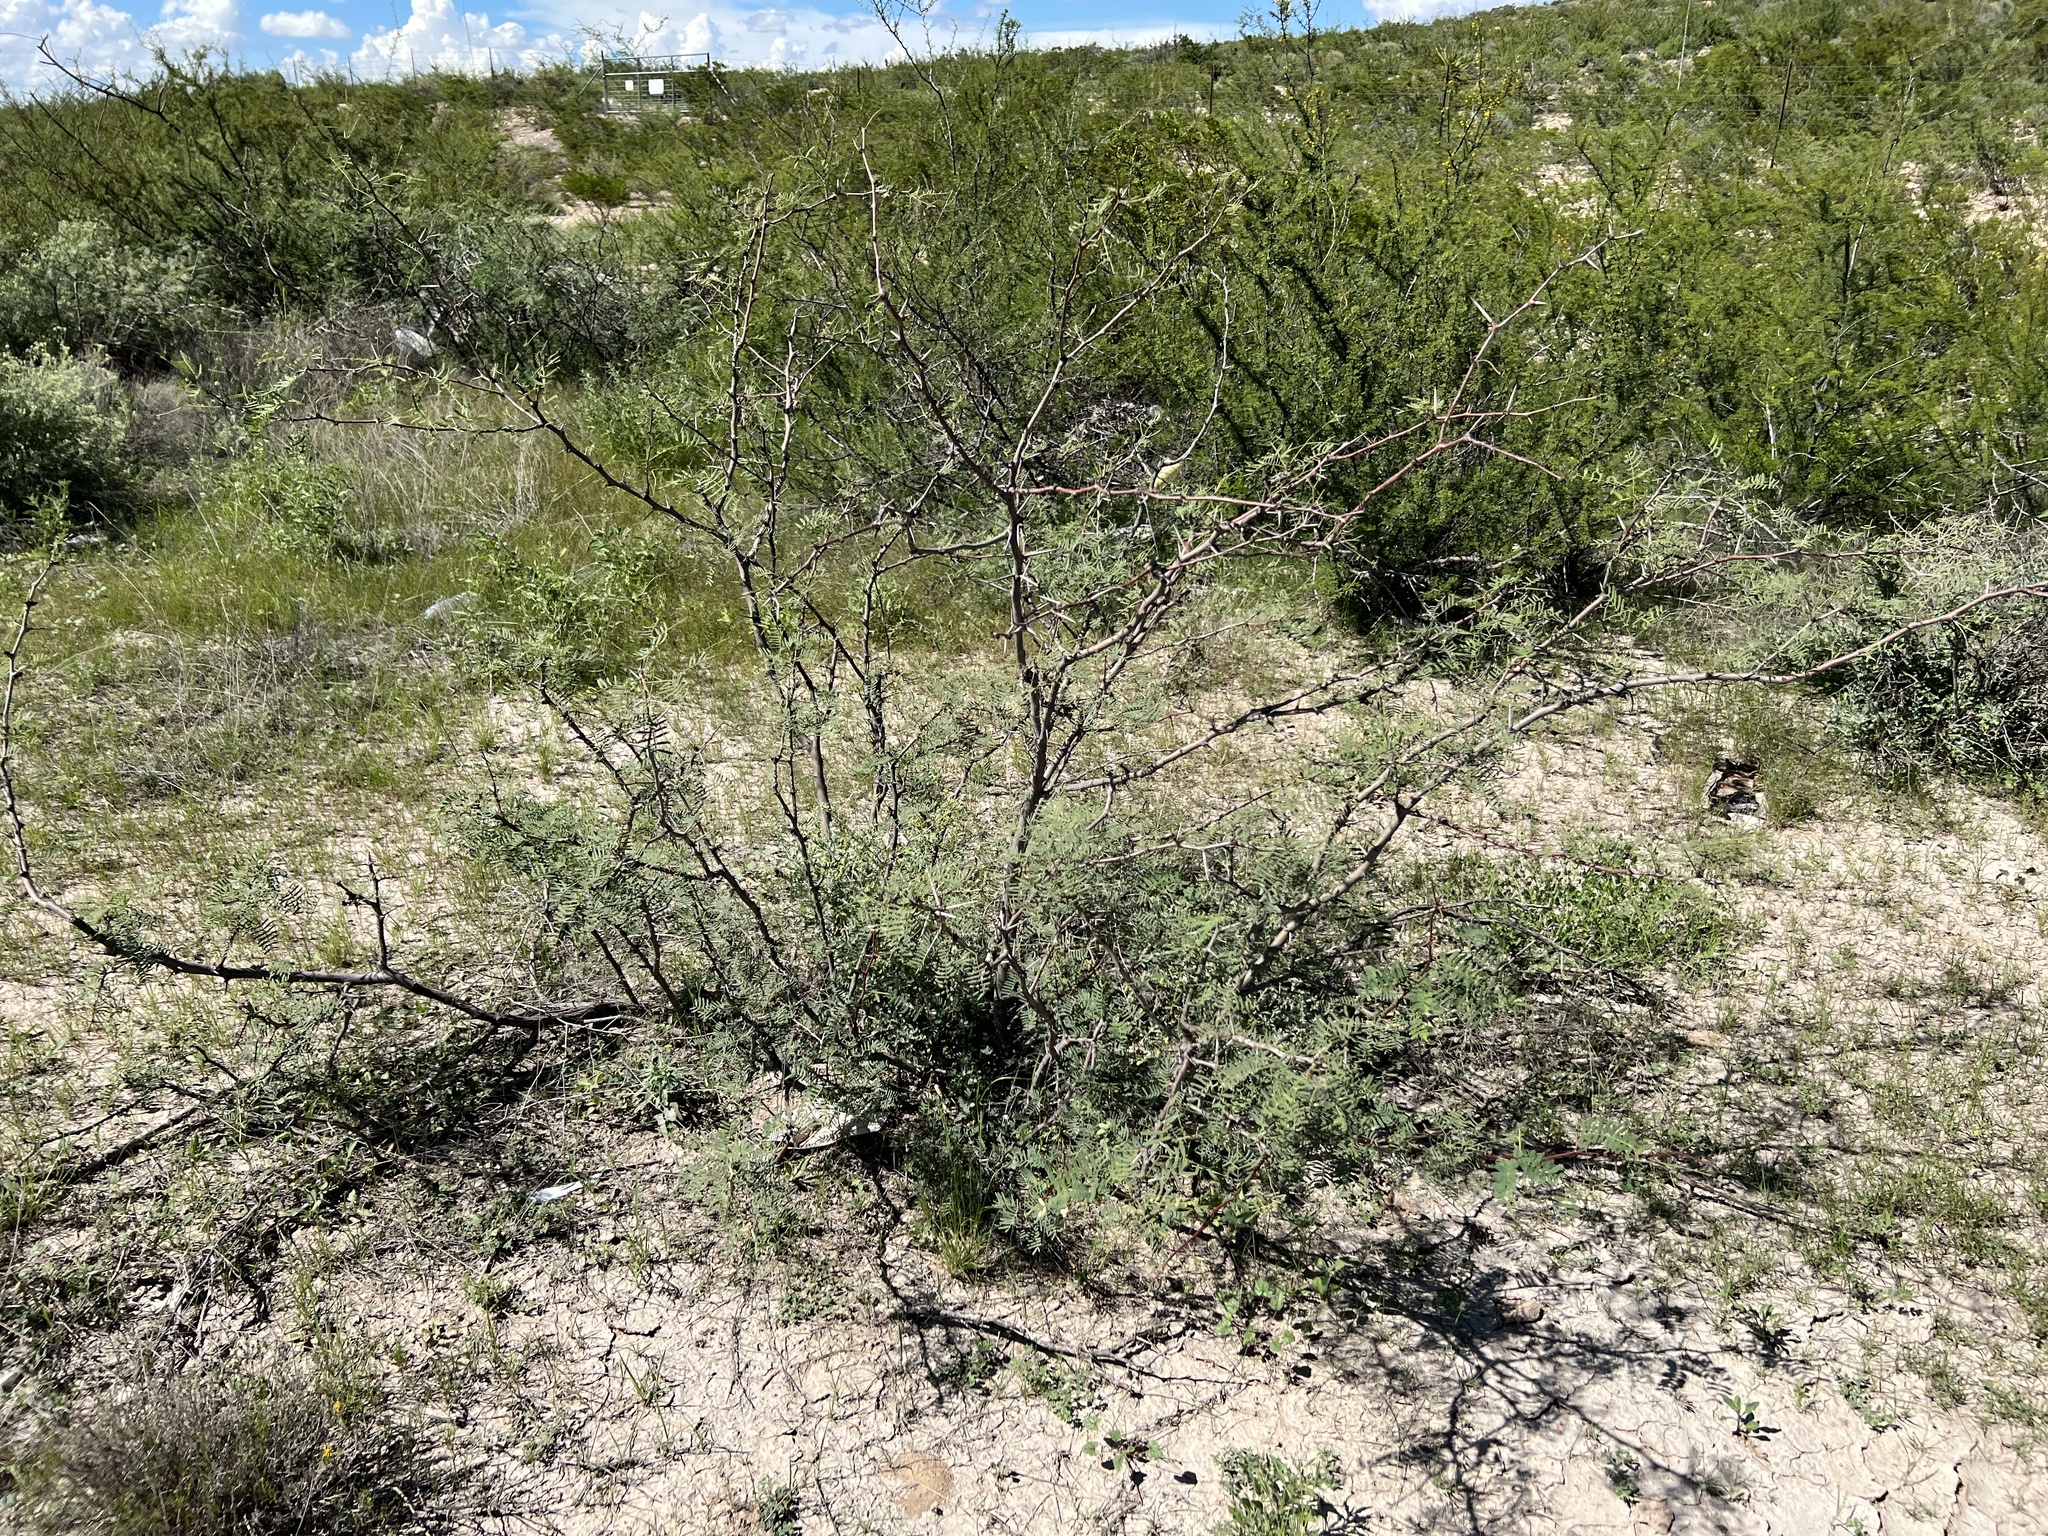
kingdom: Plantae
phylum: Tracheophyta
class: Magnoliopsida
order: Fabales
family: Fabaceae
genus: Prosopis
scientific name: Prosopis glandulosa
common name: Honey mesquite
